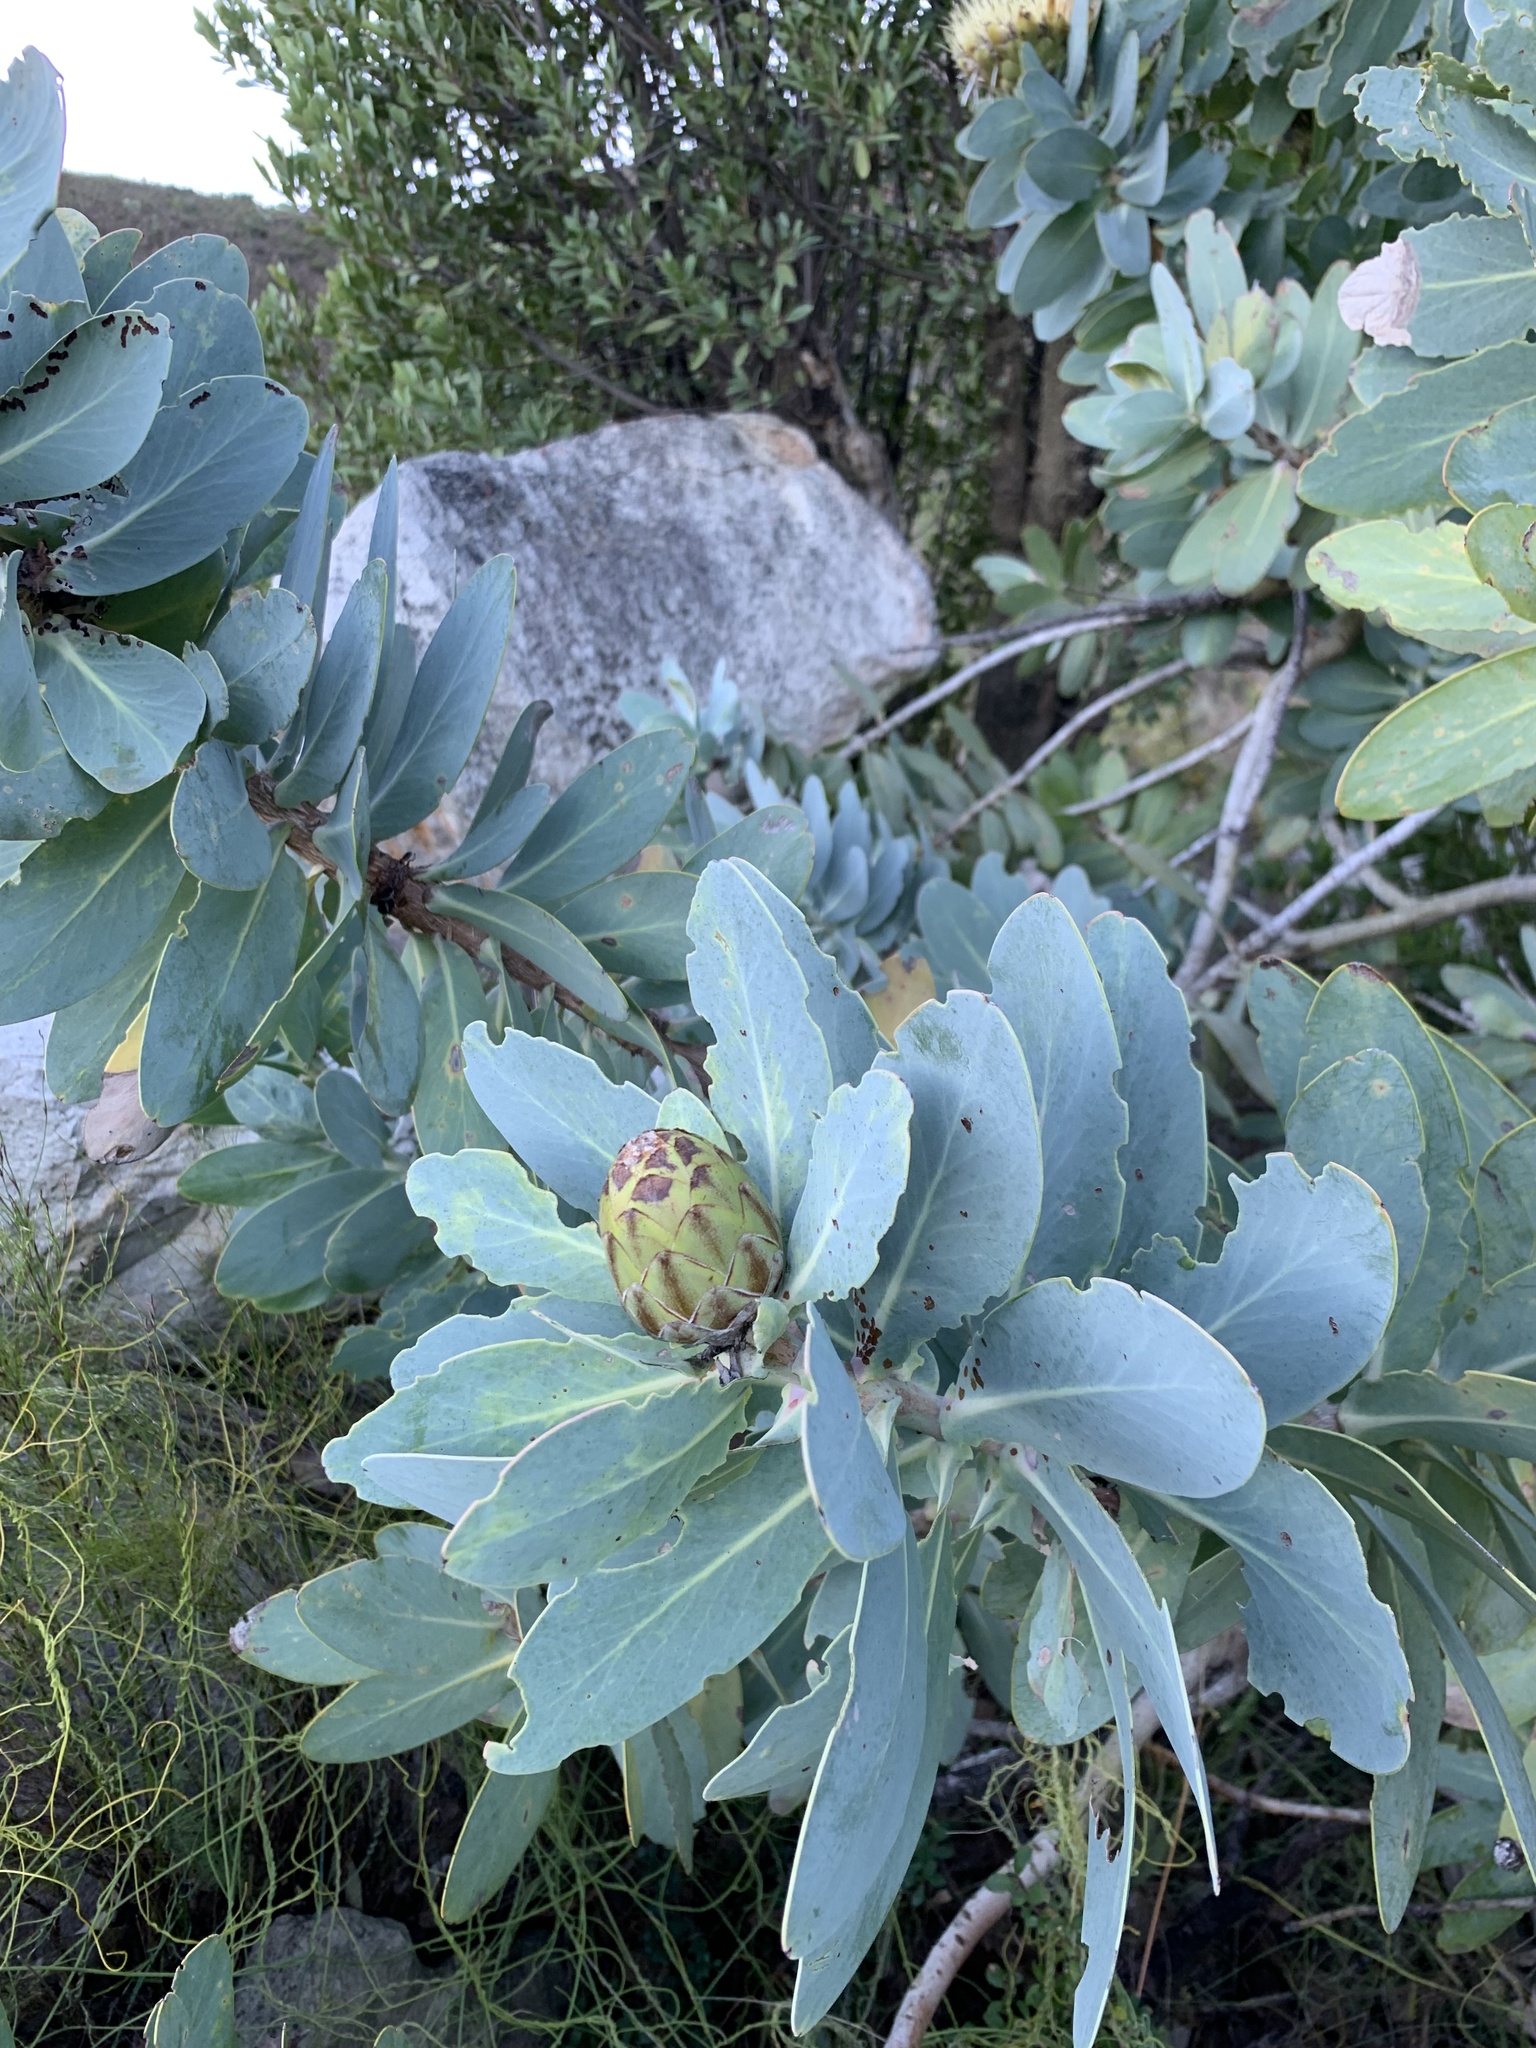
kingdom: Plantae
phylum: Tracheophyta
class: Magnoliopsida
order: Proteales
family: Proteaceae
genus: Protea
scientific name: Protea nitida
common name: Tree protea
